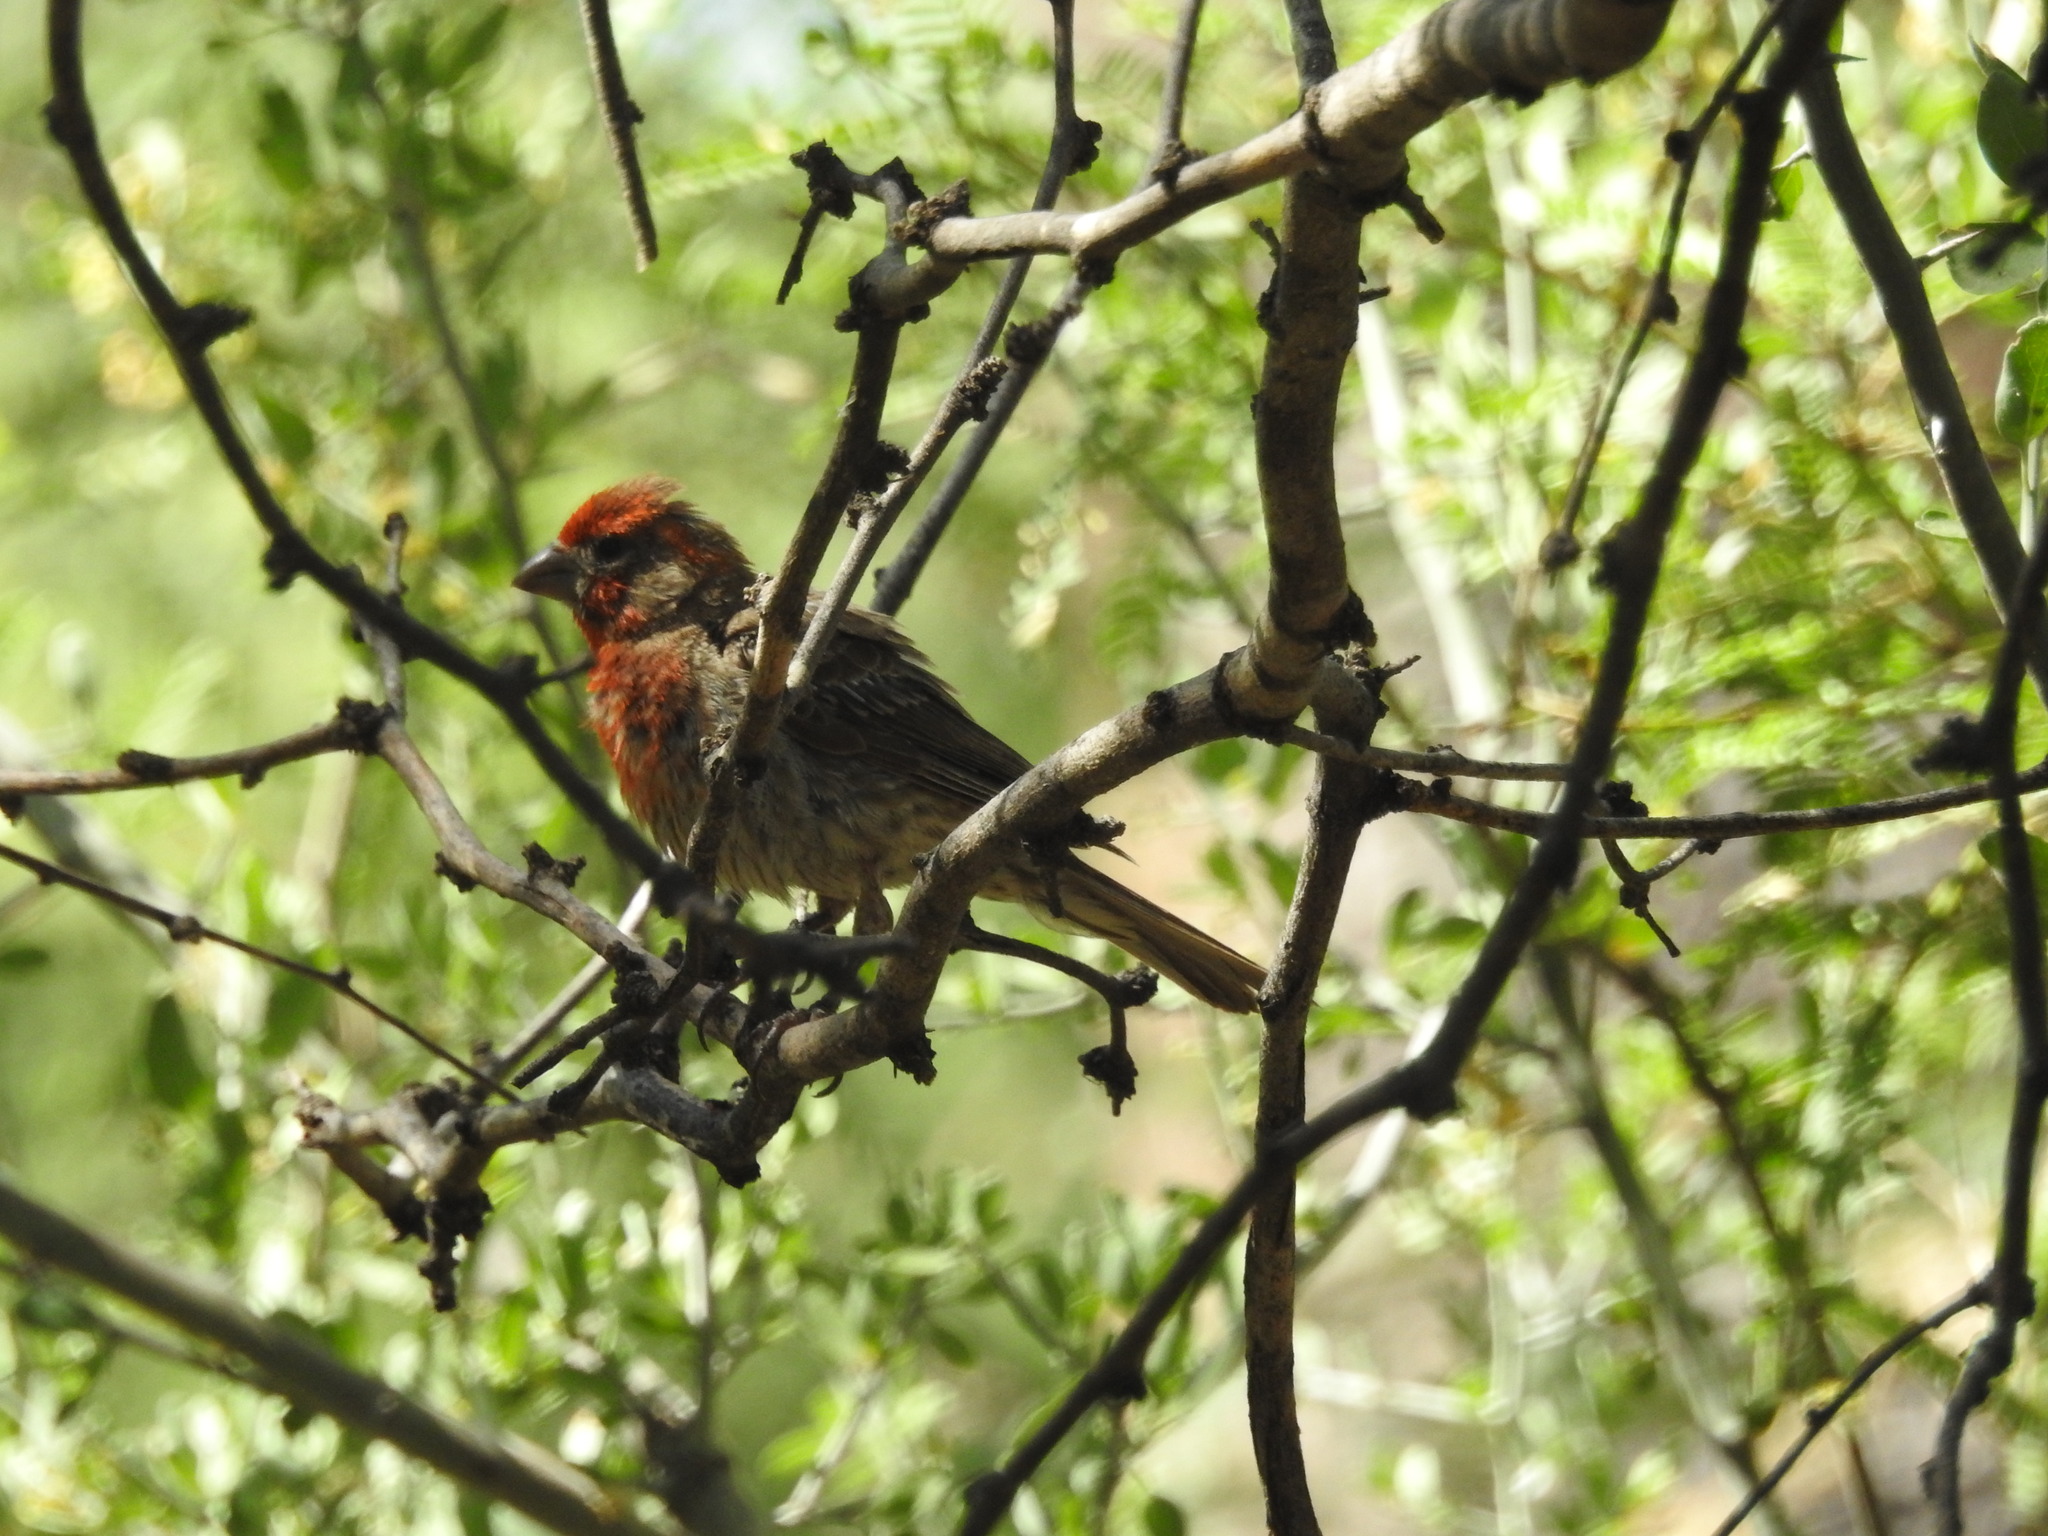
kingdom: Animalia
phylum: Chordata
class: Aves
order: Passeriformes
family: Fringillidae
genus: Haemorhous
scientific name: Haemorhous mexicanus
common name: House finch
